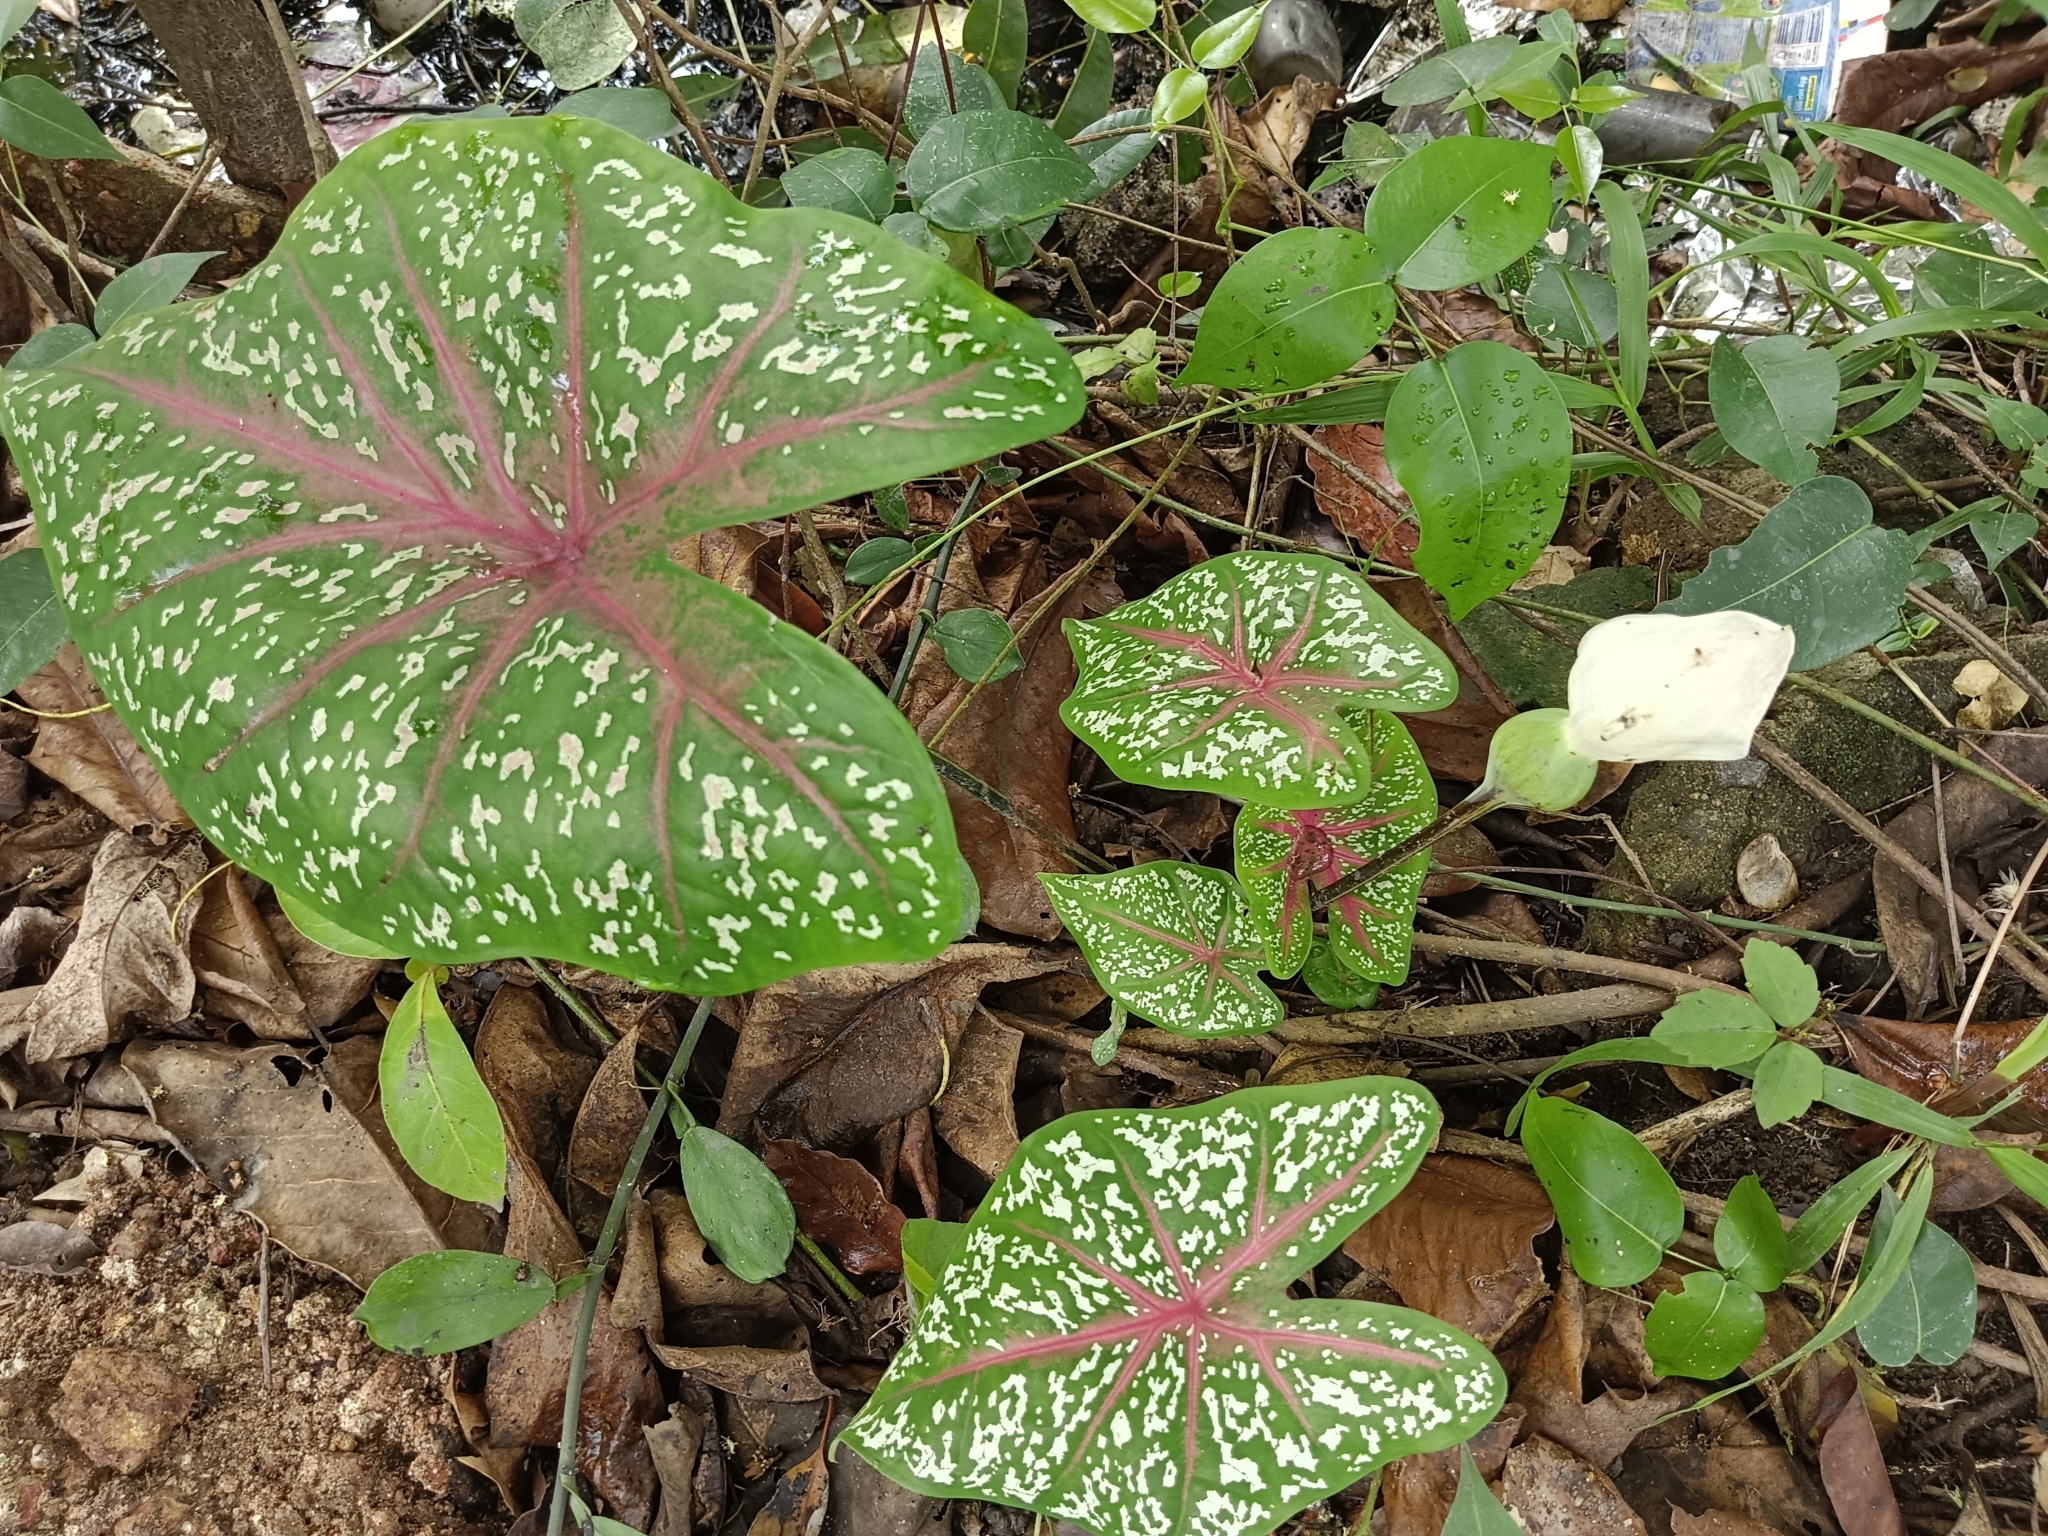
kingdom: Plantae
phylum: Tracheophyta
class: Liliopsida
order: Alismatales
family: Araceae
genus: Caladium
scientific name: Caladium bicolor
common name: Artist's pallet
